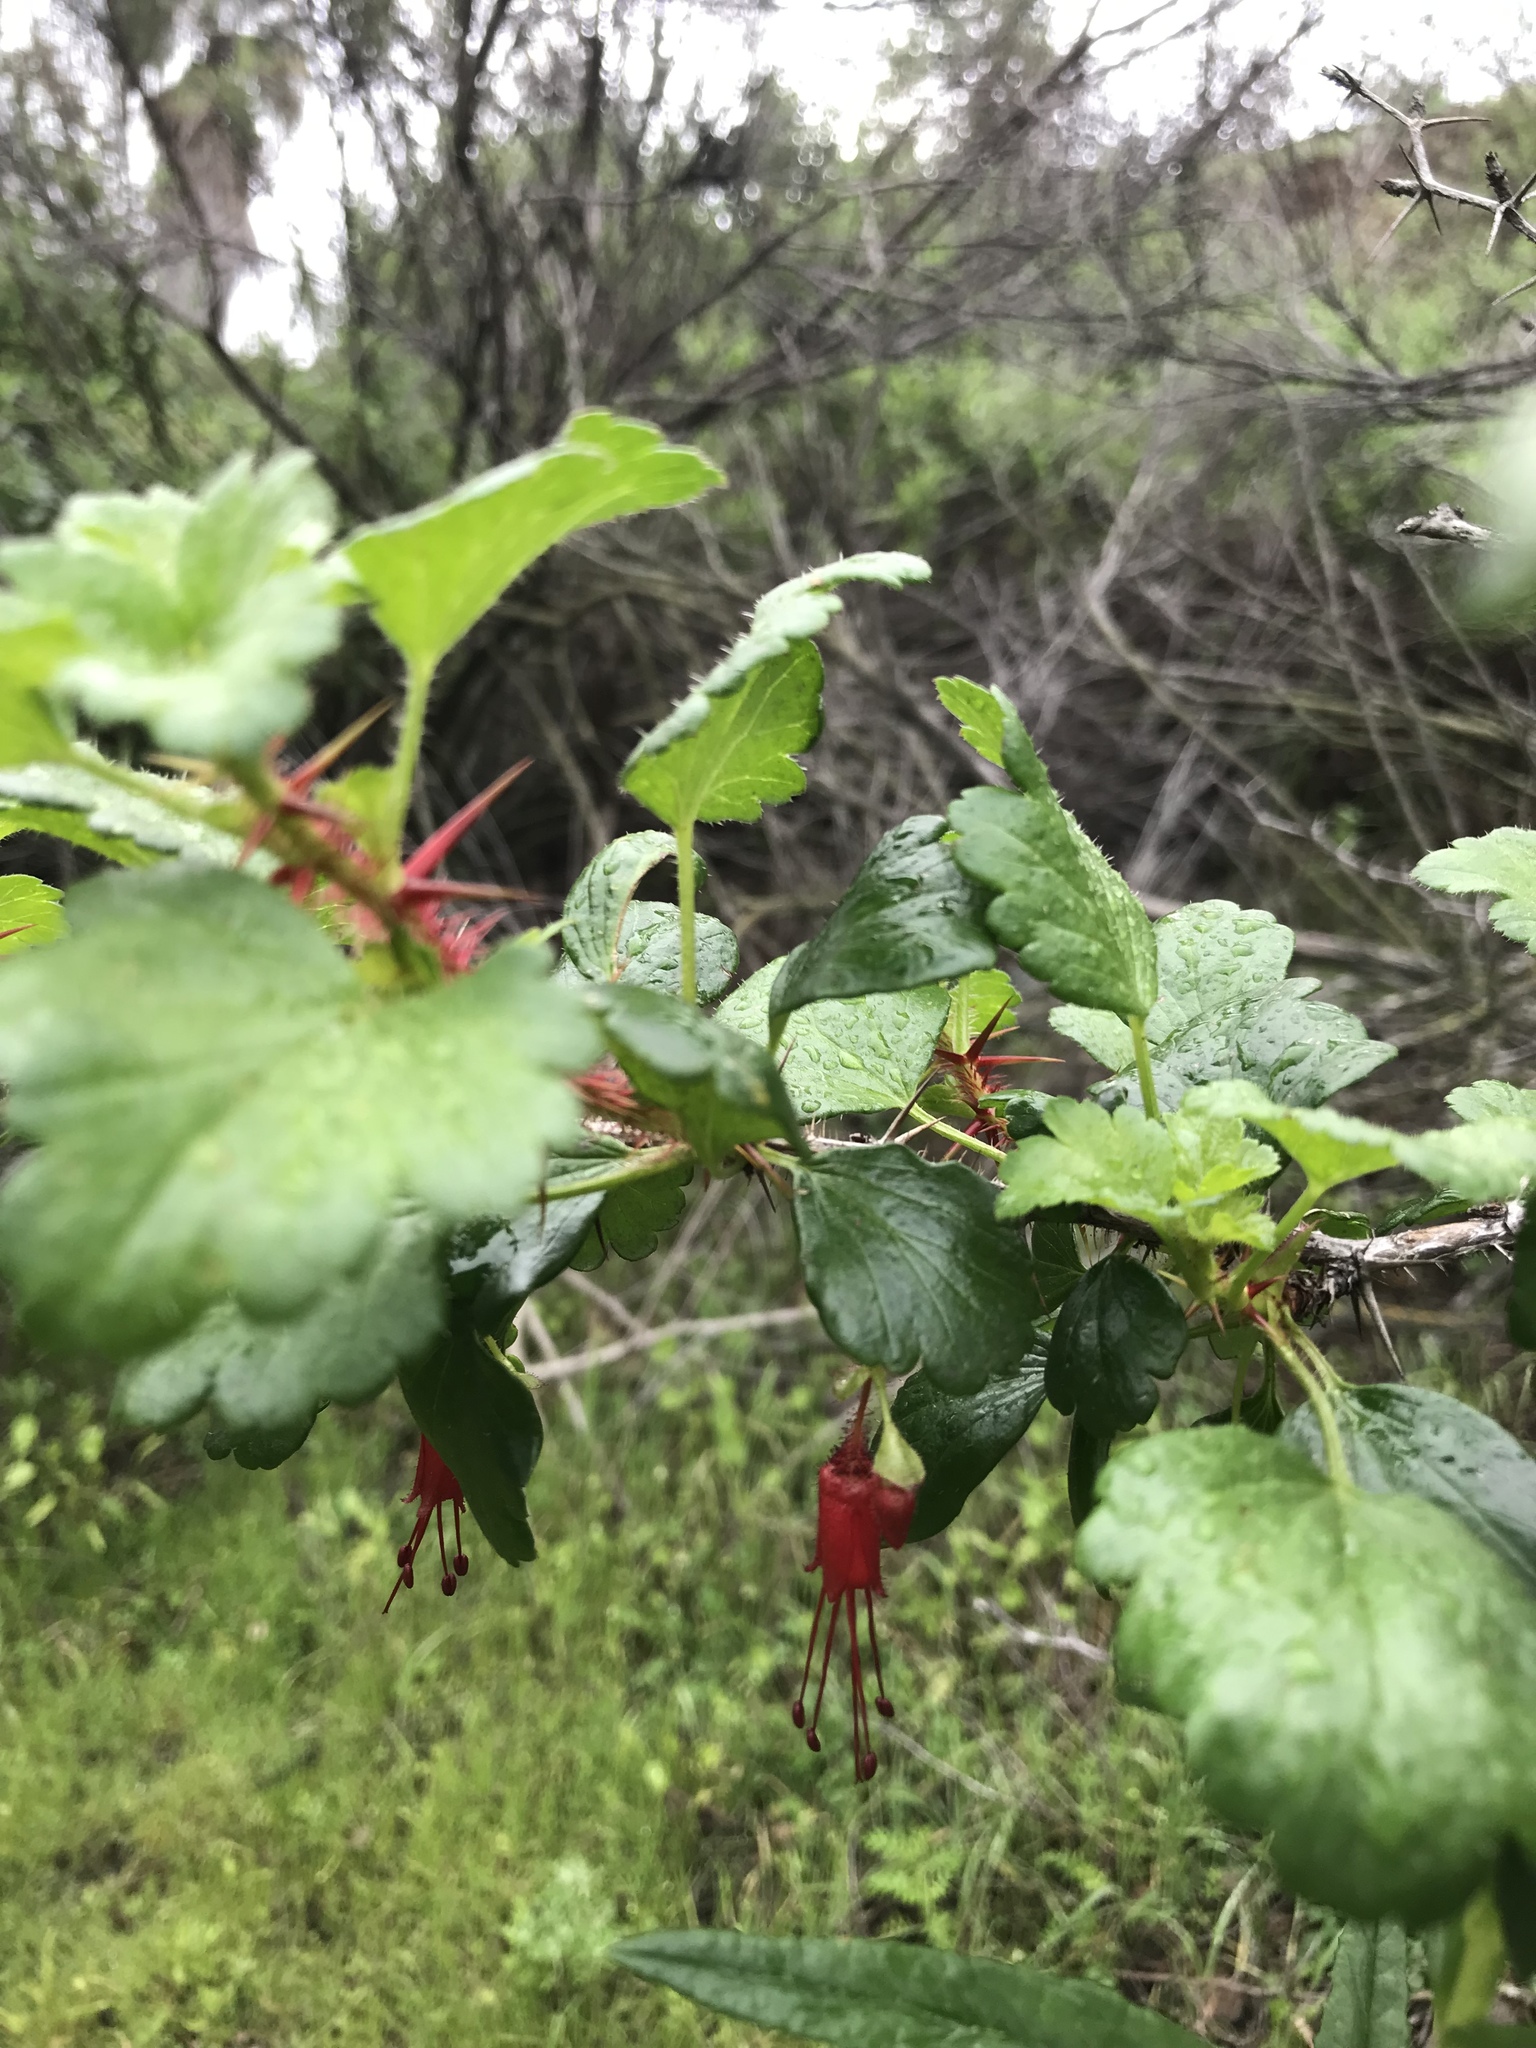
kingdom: Plantae
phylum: Tracheophyta
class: Magnoliopsida
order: Saxifragales
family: Grossulariaceae
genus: Ribes
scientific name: Ribes speciosum
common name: Fuchsia-flower gooseberry
